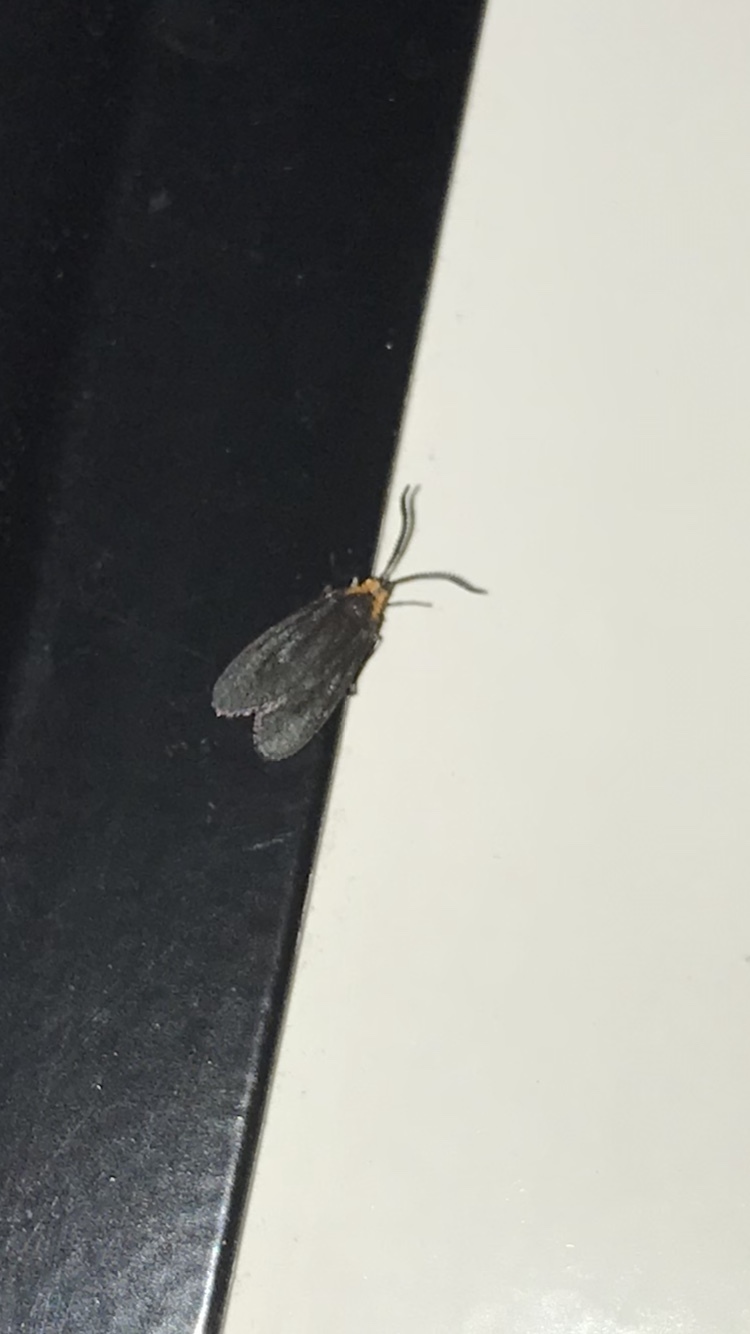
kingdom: Animalia
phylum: Arthropoda
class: Insecta
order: Lepidoptera
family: Erebidae
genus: Cisseps
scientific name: Cisseps fulvicollis
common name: Yellow-collared scape moth
